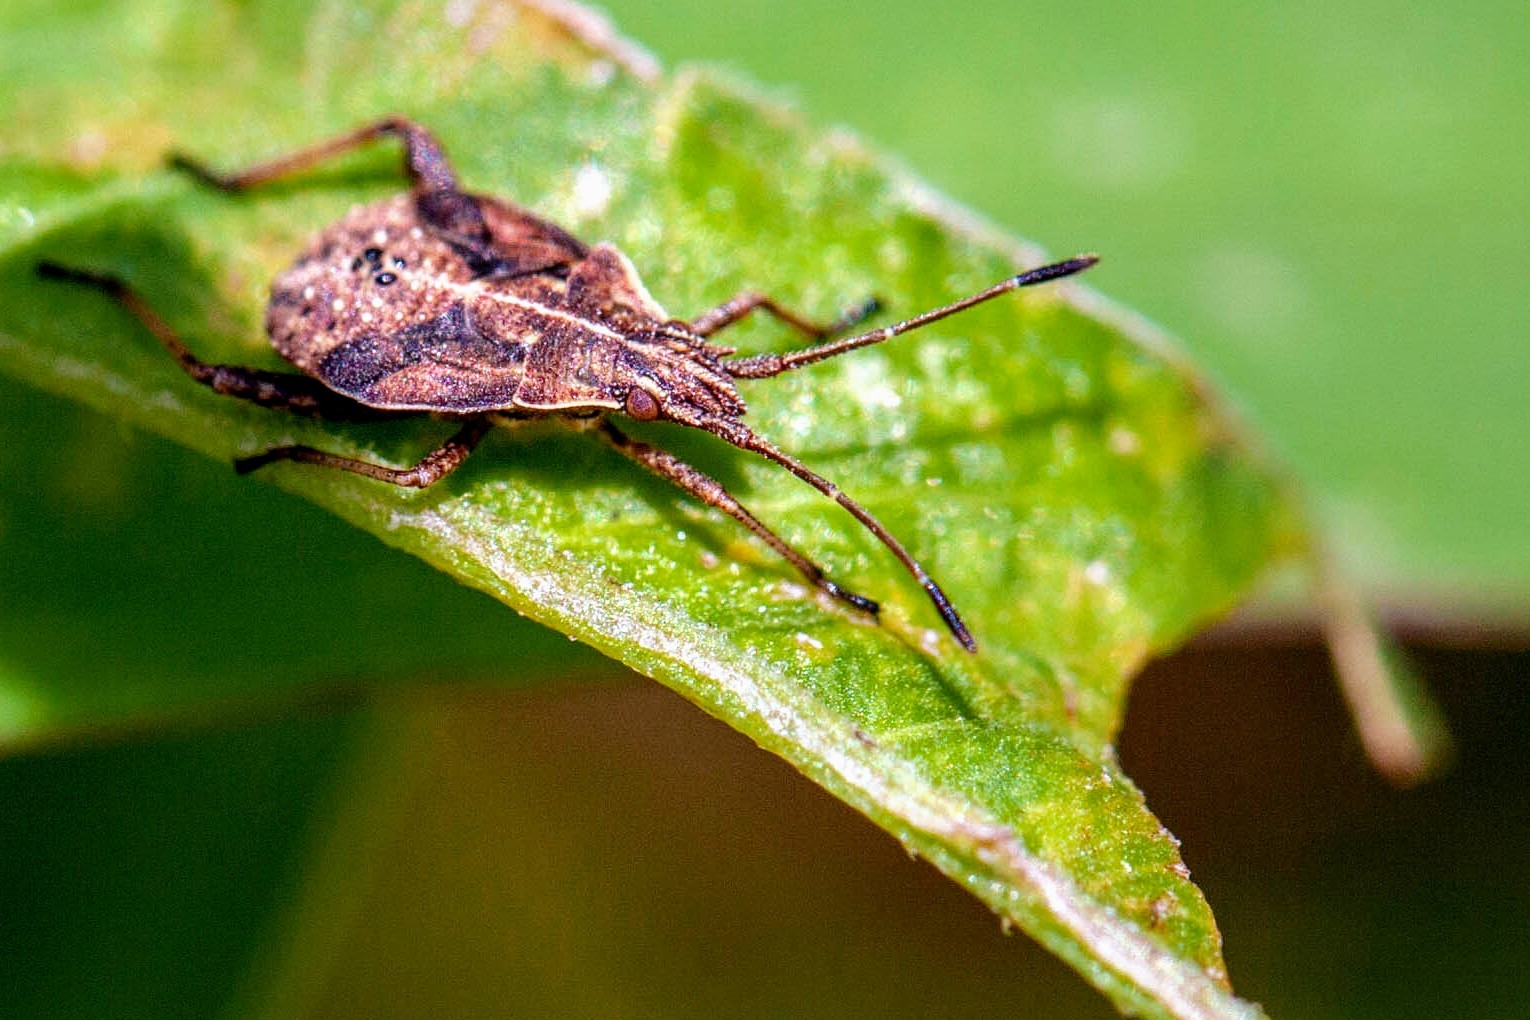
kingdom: Animalia
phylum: Arthropoda
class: Insecta
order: Hemiptera
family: Rhopalidae
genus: Harmostes
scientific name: Harmostes serratus
